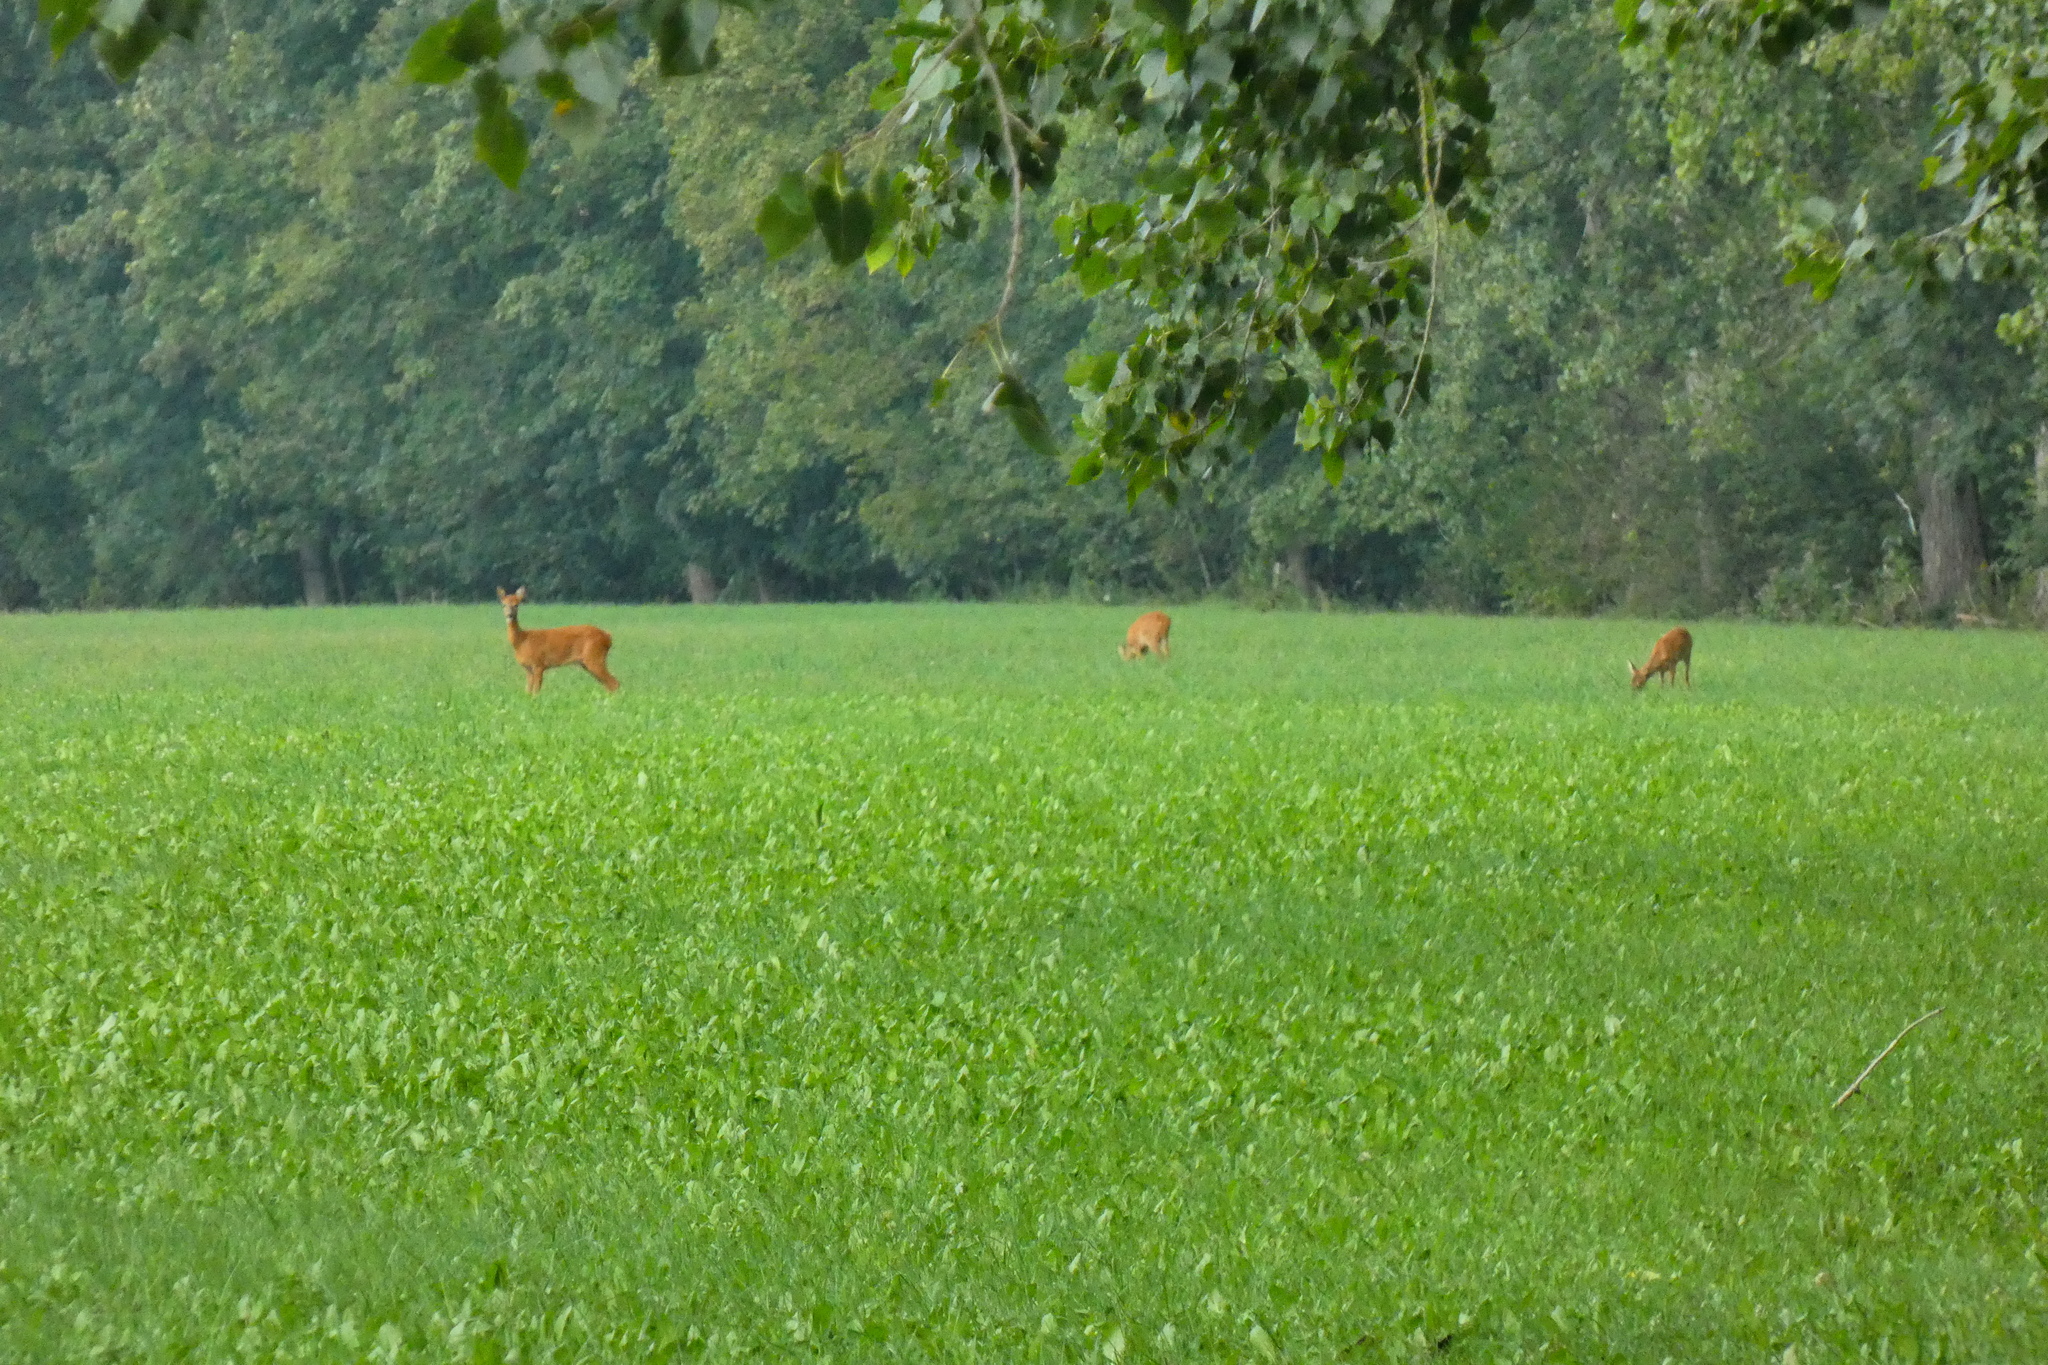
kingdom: Animalia
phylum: Chordata
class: Mammalia
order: Artiodactyla
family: Cervidae
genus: Capreolus
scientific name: Capreolus capreolus
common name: Western roe deer
